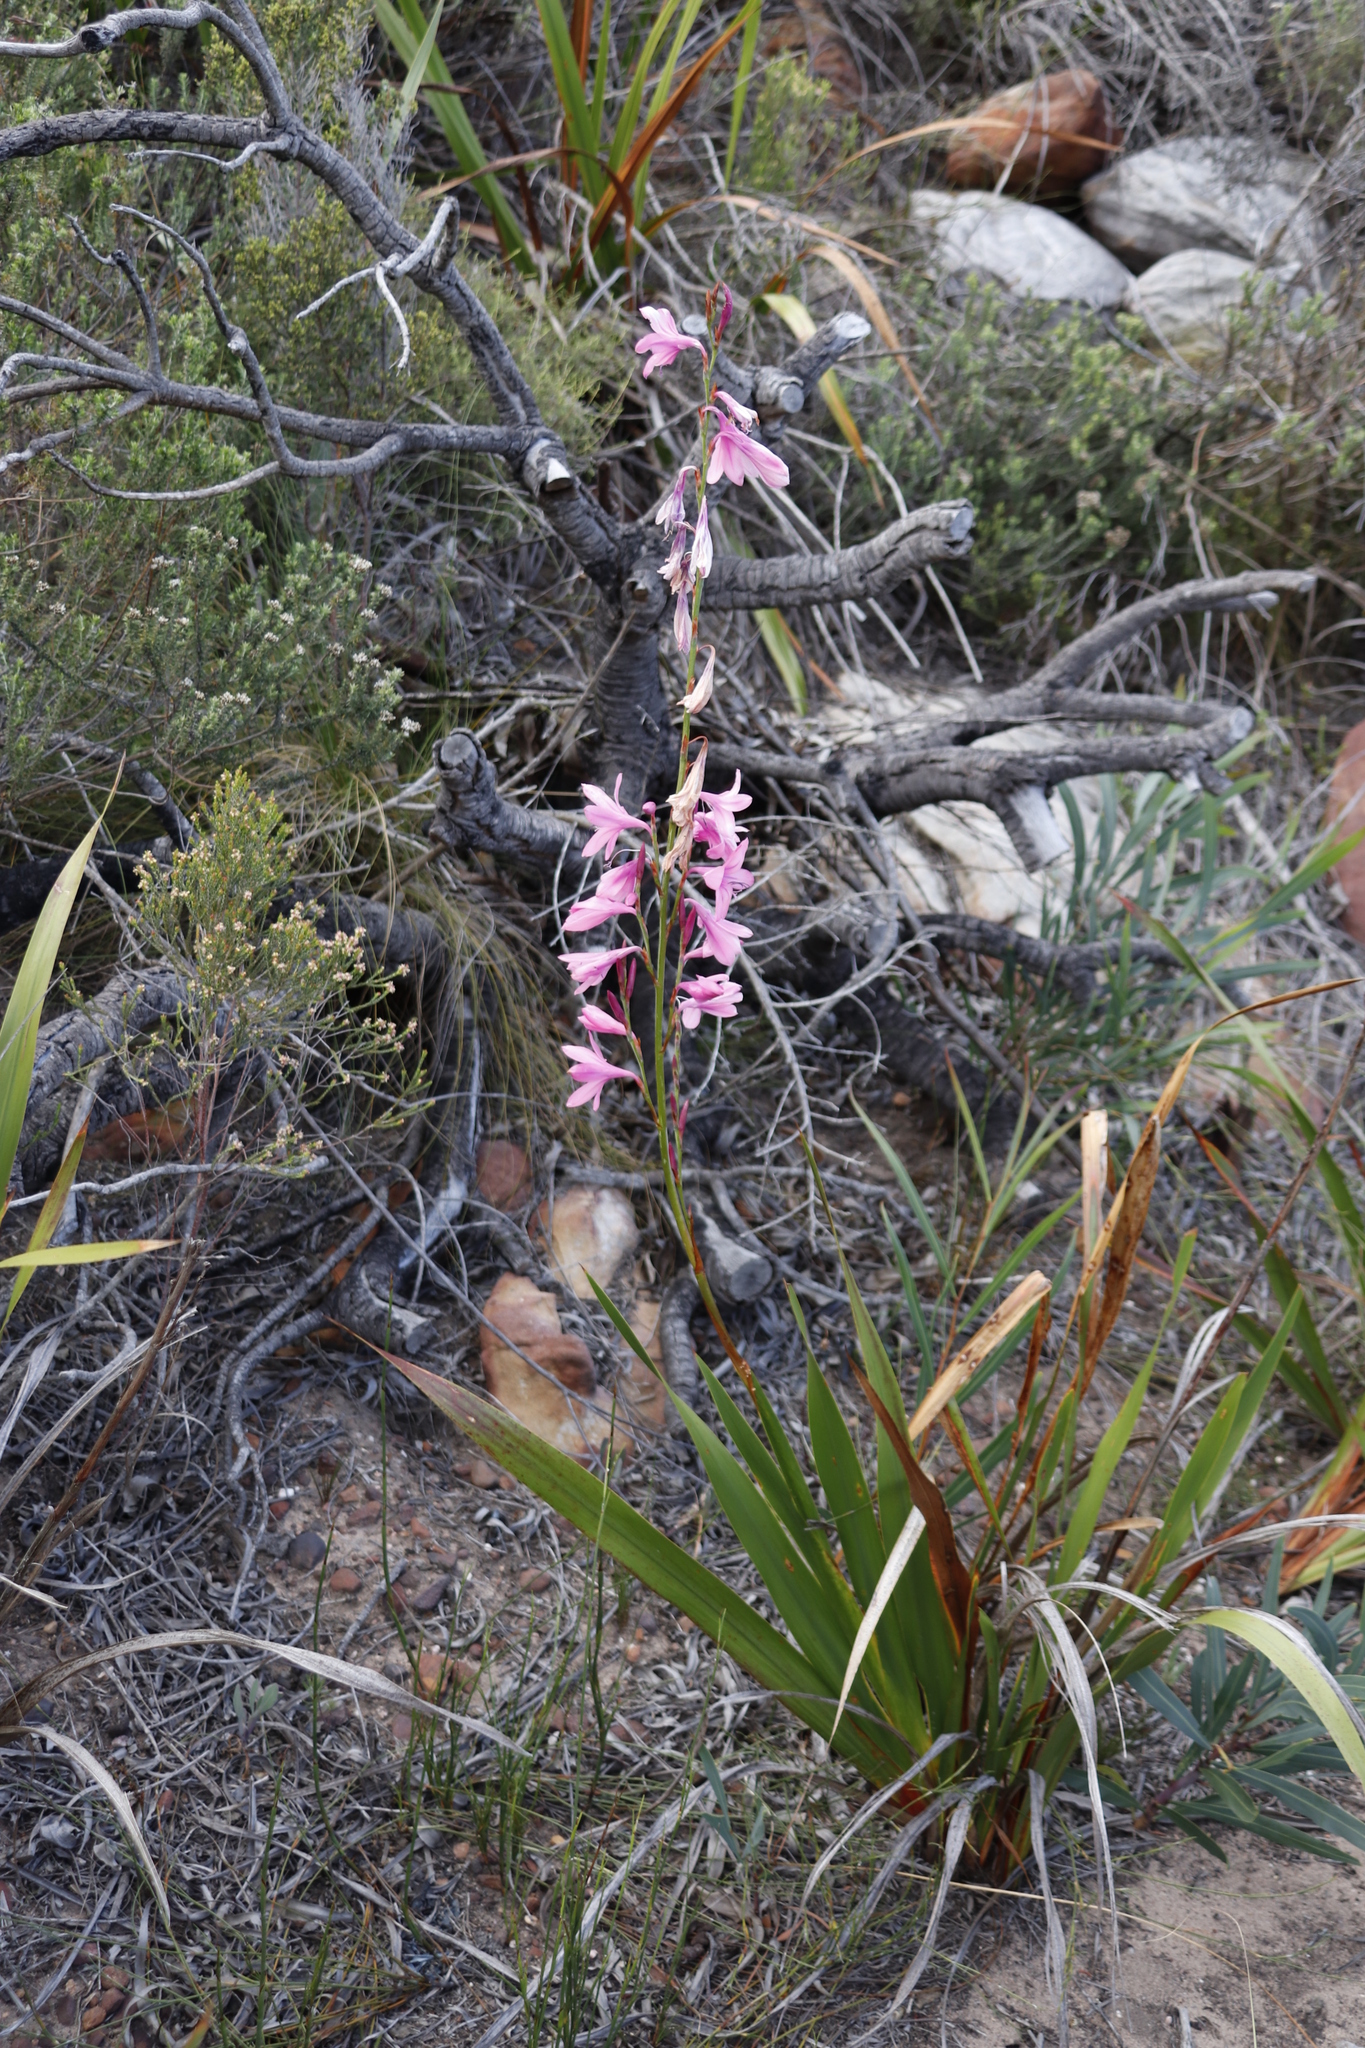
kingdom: Plantae
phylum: Tracheophyta
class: Liliopsida
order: Asparagales
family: Iridaceae
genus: Watsonia
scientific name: Watsonia borbonica
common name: Bugle-lily
